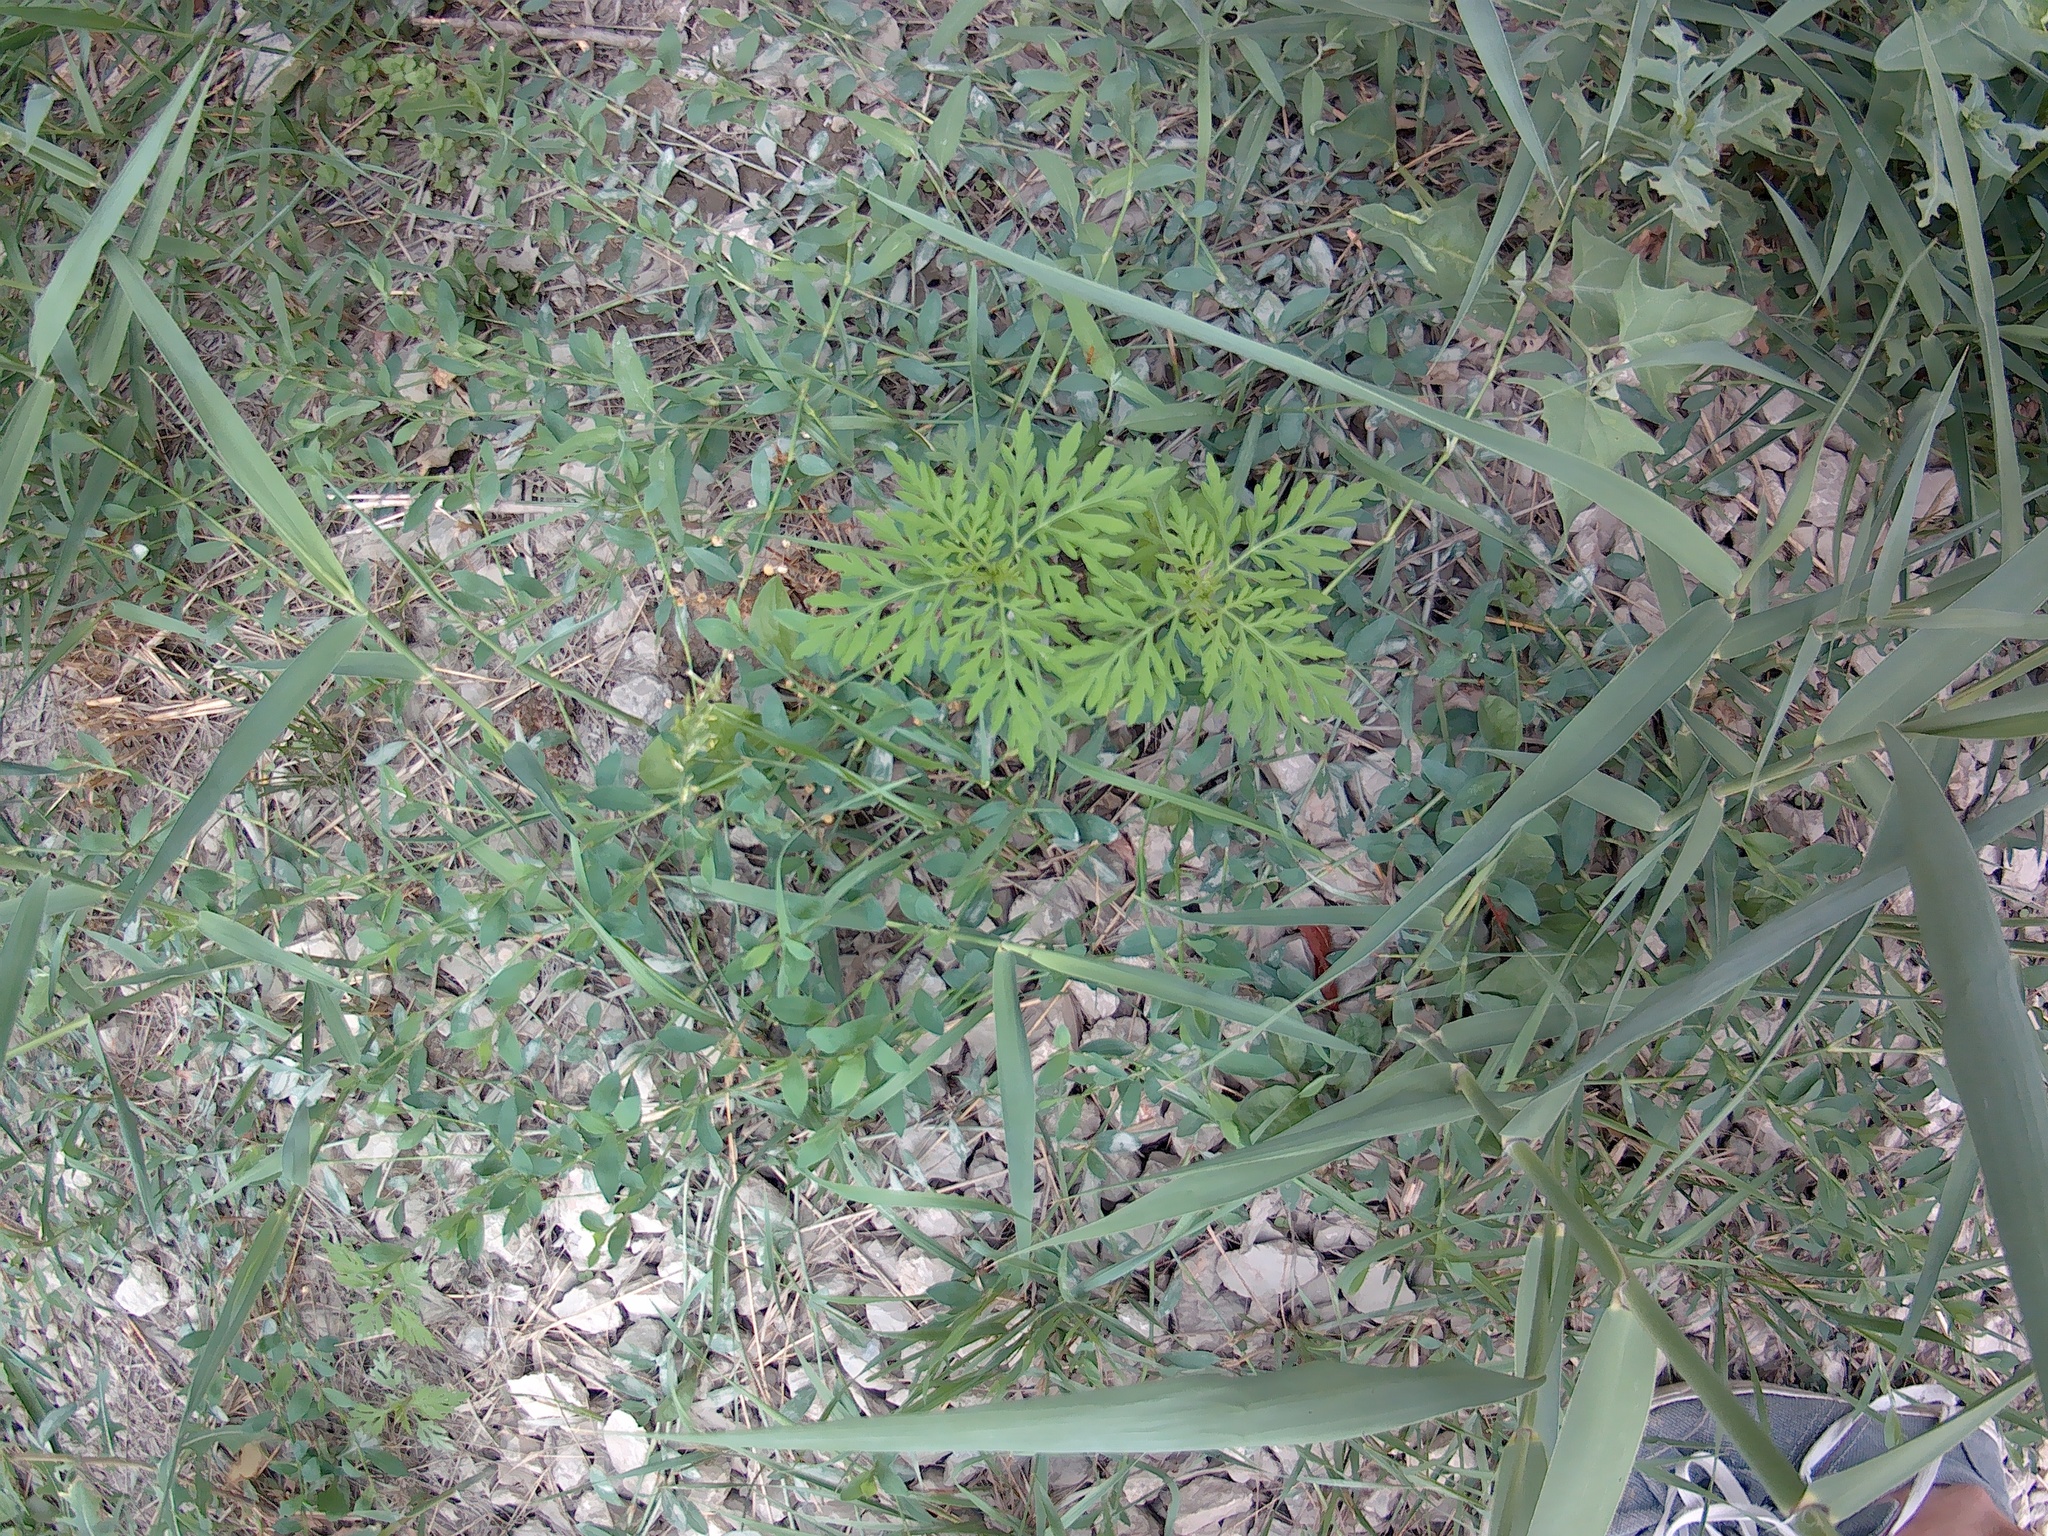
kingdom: Plantae
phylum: Tracheophyta
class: Magnoliopsida
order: Asterales
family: Asteraceae
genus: Ambrosia
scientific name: Ambrosia artemisiifolia
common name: Annual ragweed
